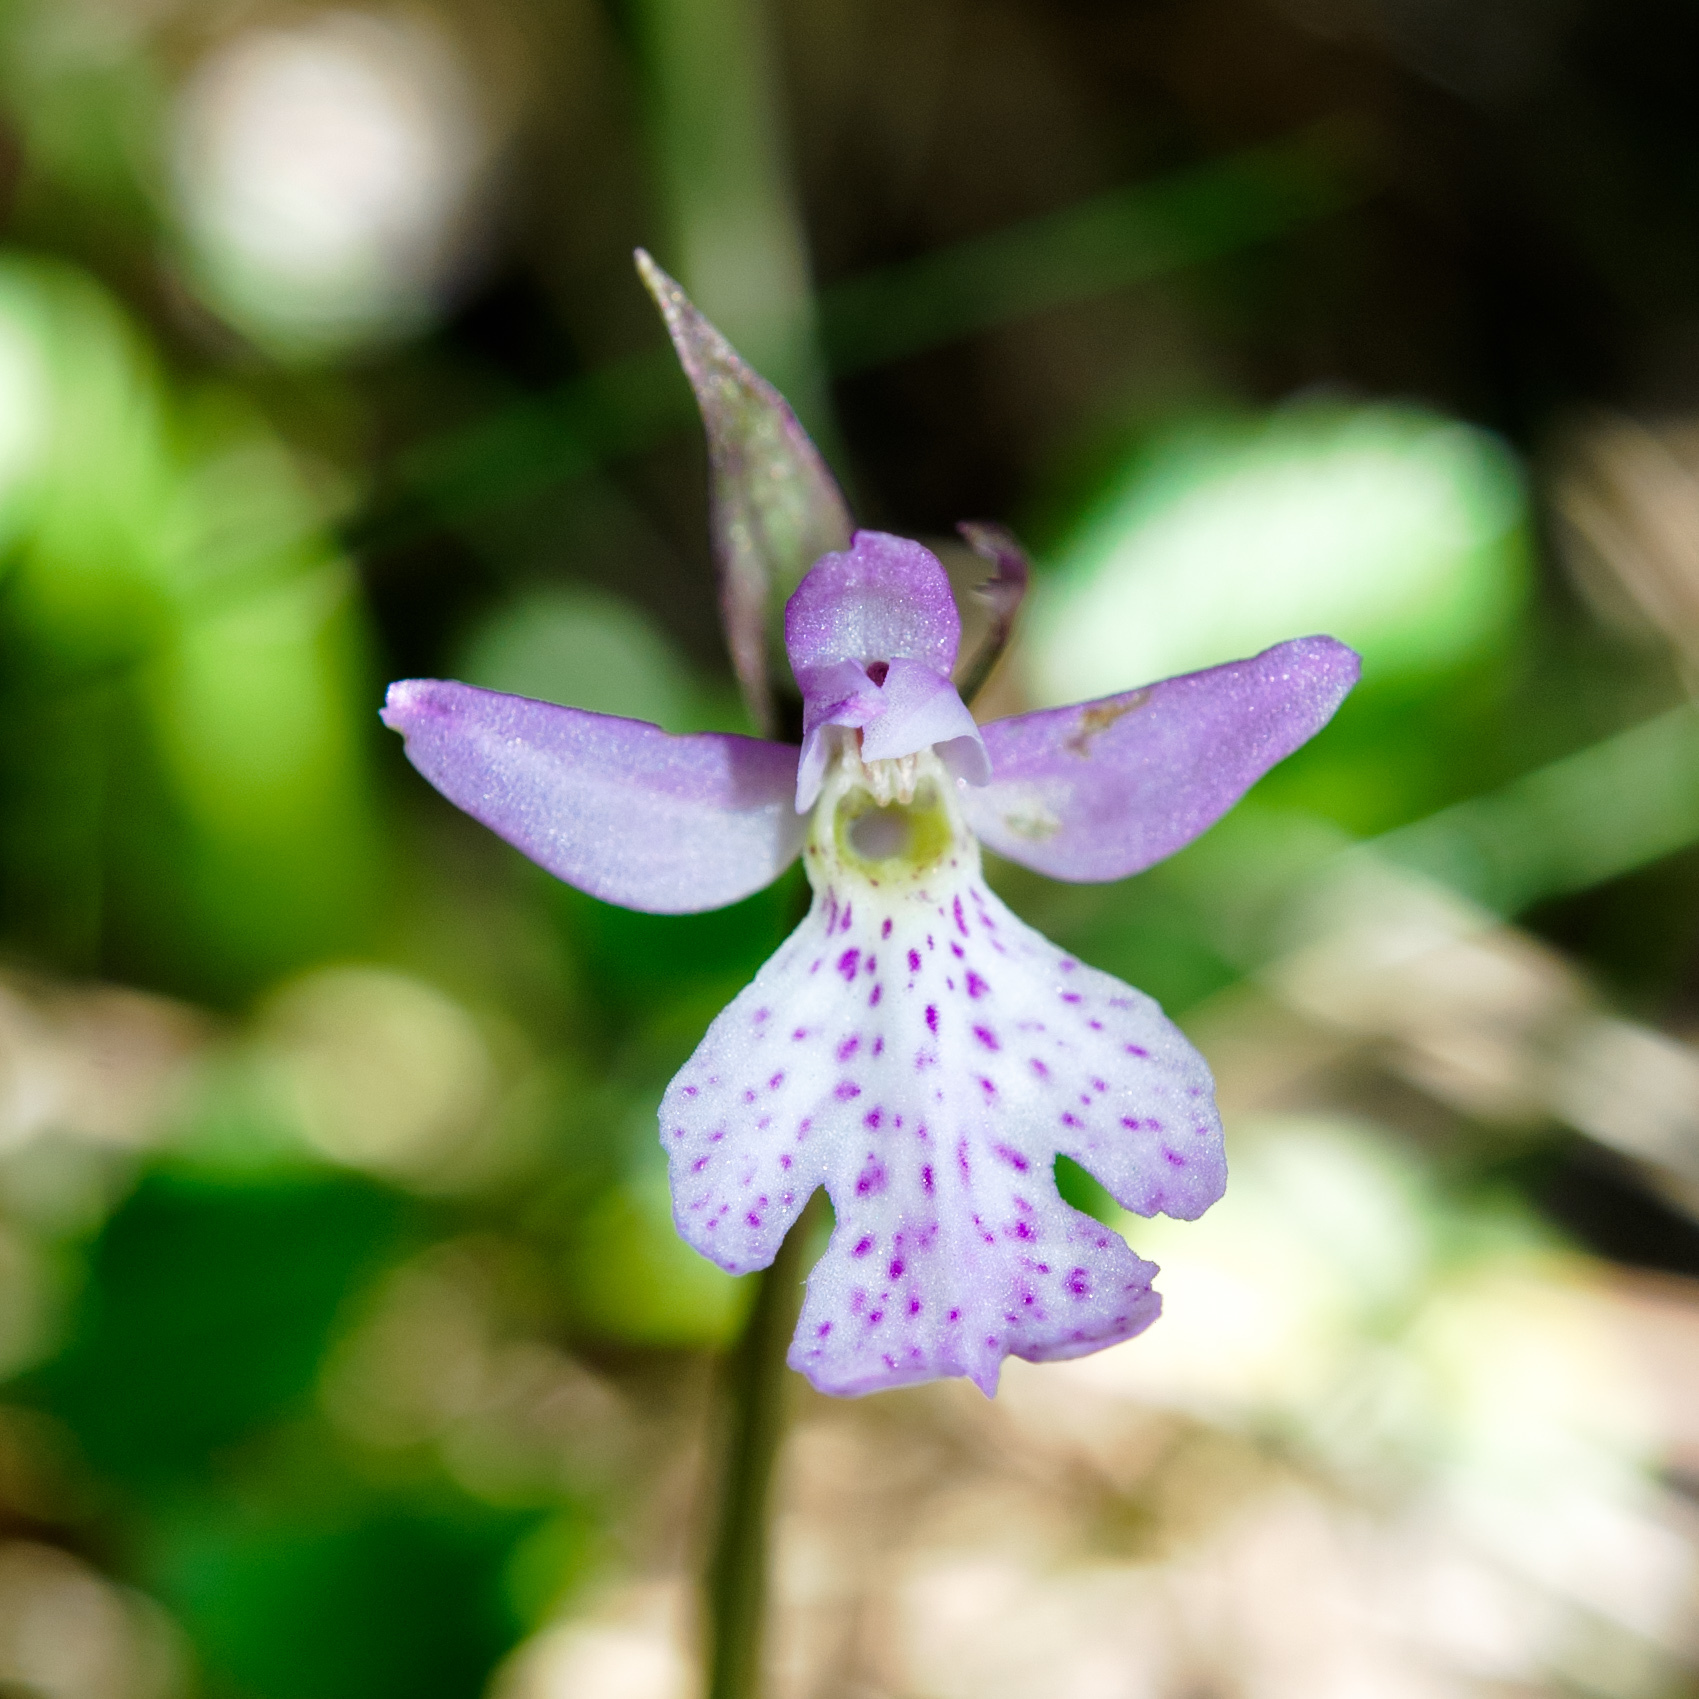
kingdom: Plantae
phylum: Tracheophyta
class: Liliopsida
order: Asparagales
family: Orchidaceae
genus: Hemipilia
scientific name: Hemipilia alpestris
